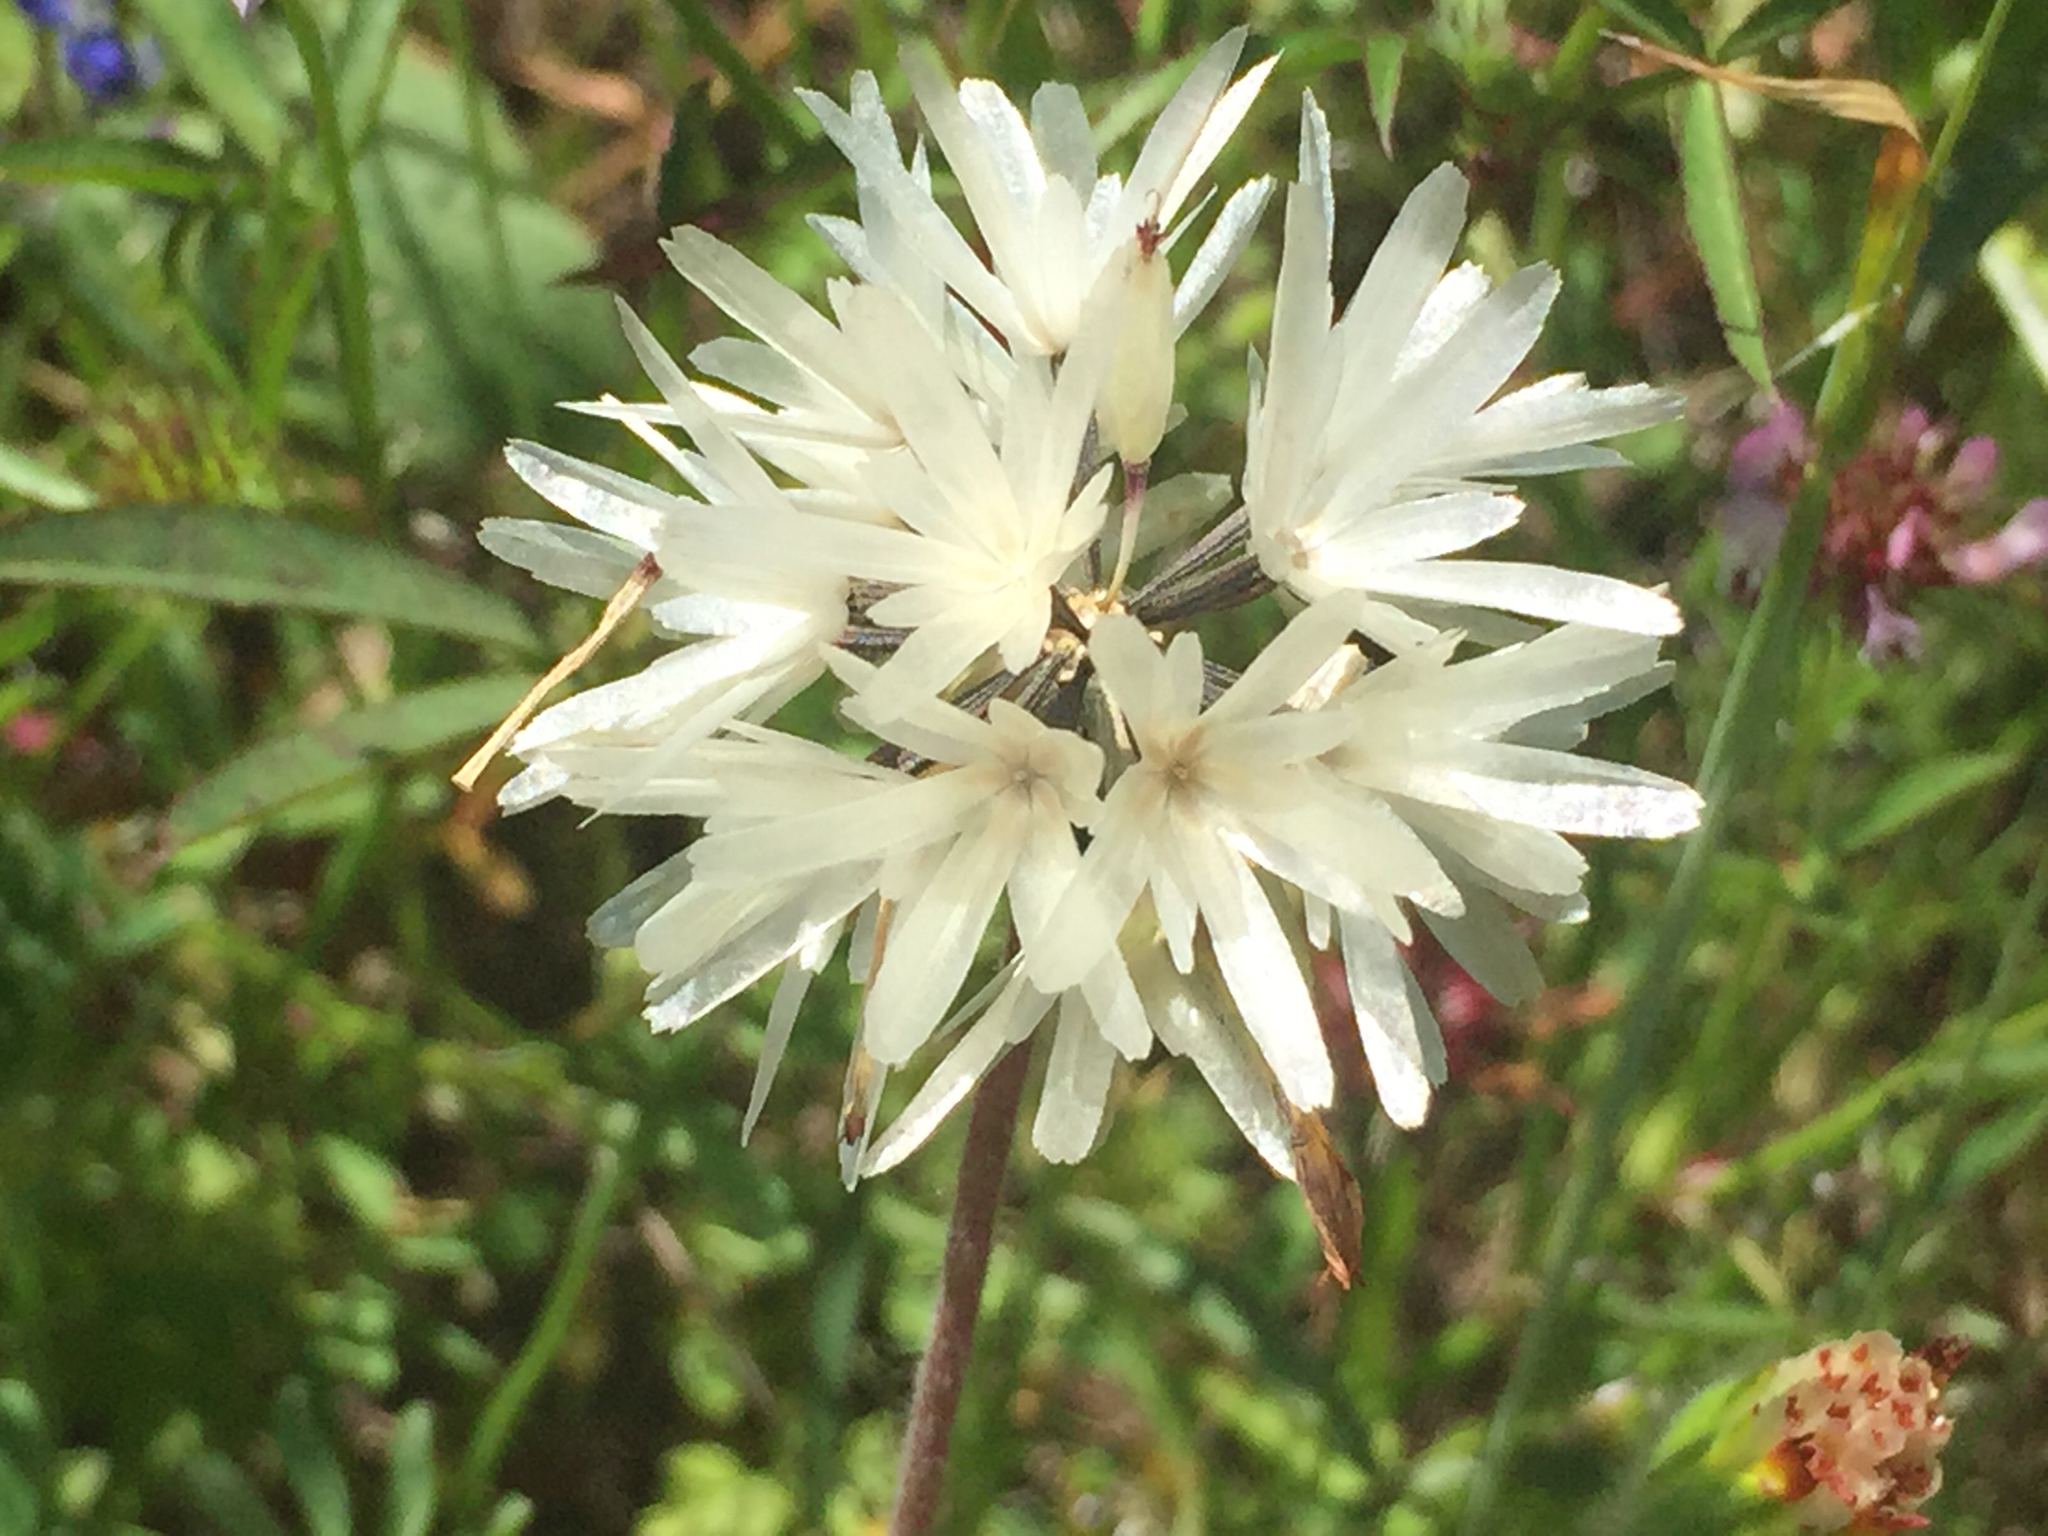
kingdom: Plantae
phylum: Tracheophyta
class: Magnoliopsida
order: Asterales
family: Asteraceae
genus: Achyrachaena
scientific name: Achyrachaena mollis
